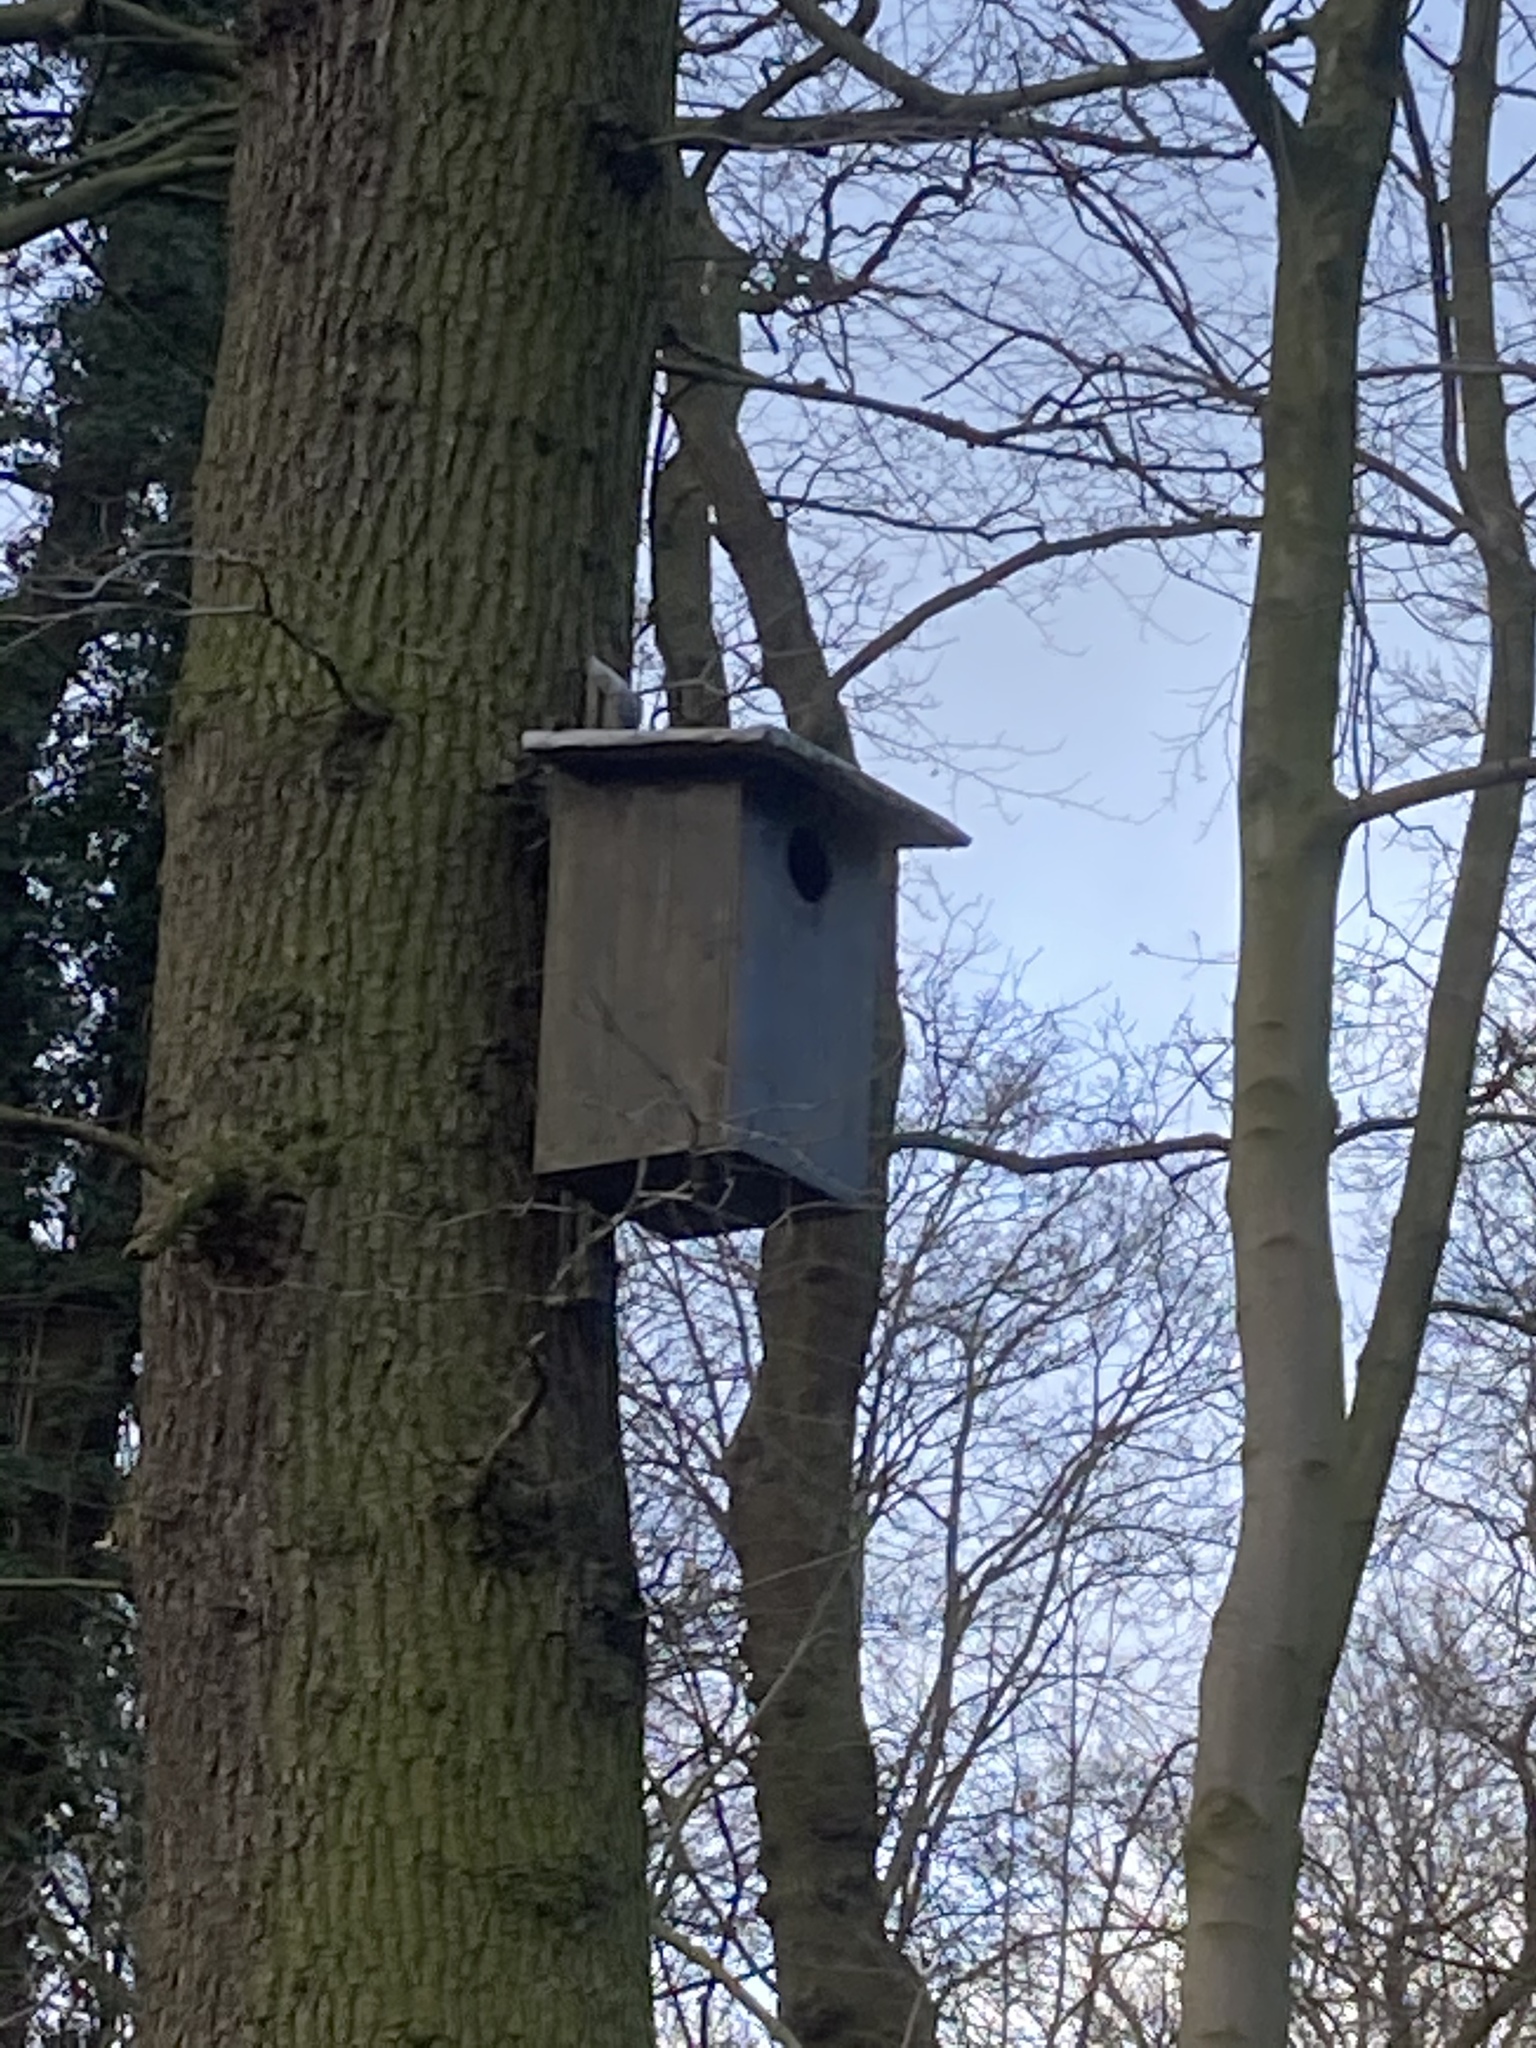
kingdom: Plantae
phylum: Tracheophyta
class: Magnoliopsida
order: Fagales
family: Fagaceae
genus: Quercus
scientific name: Quercus robur
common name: Pedunculate oak
